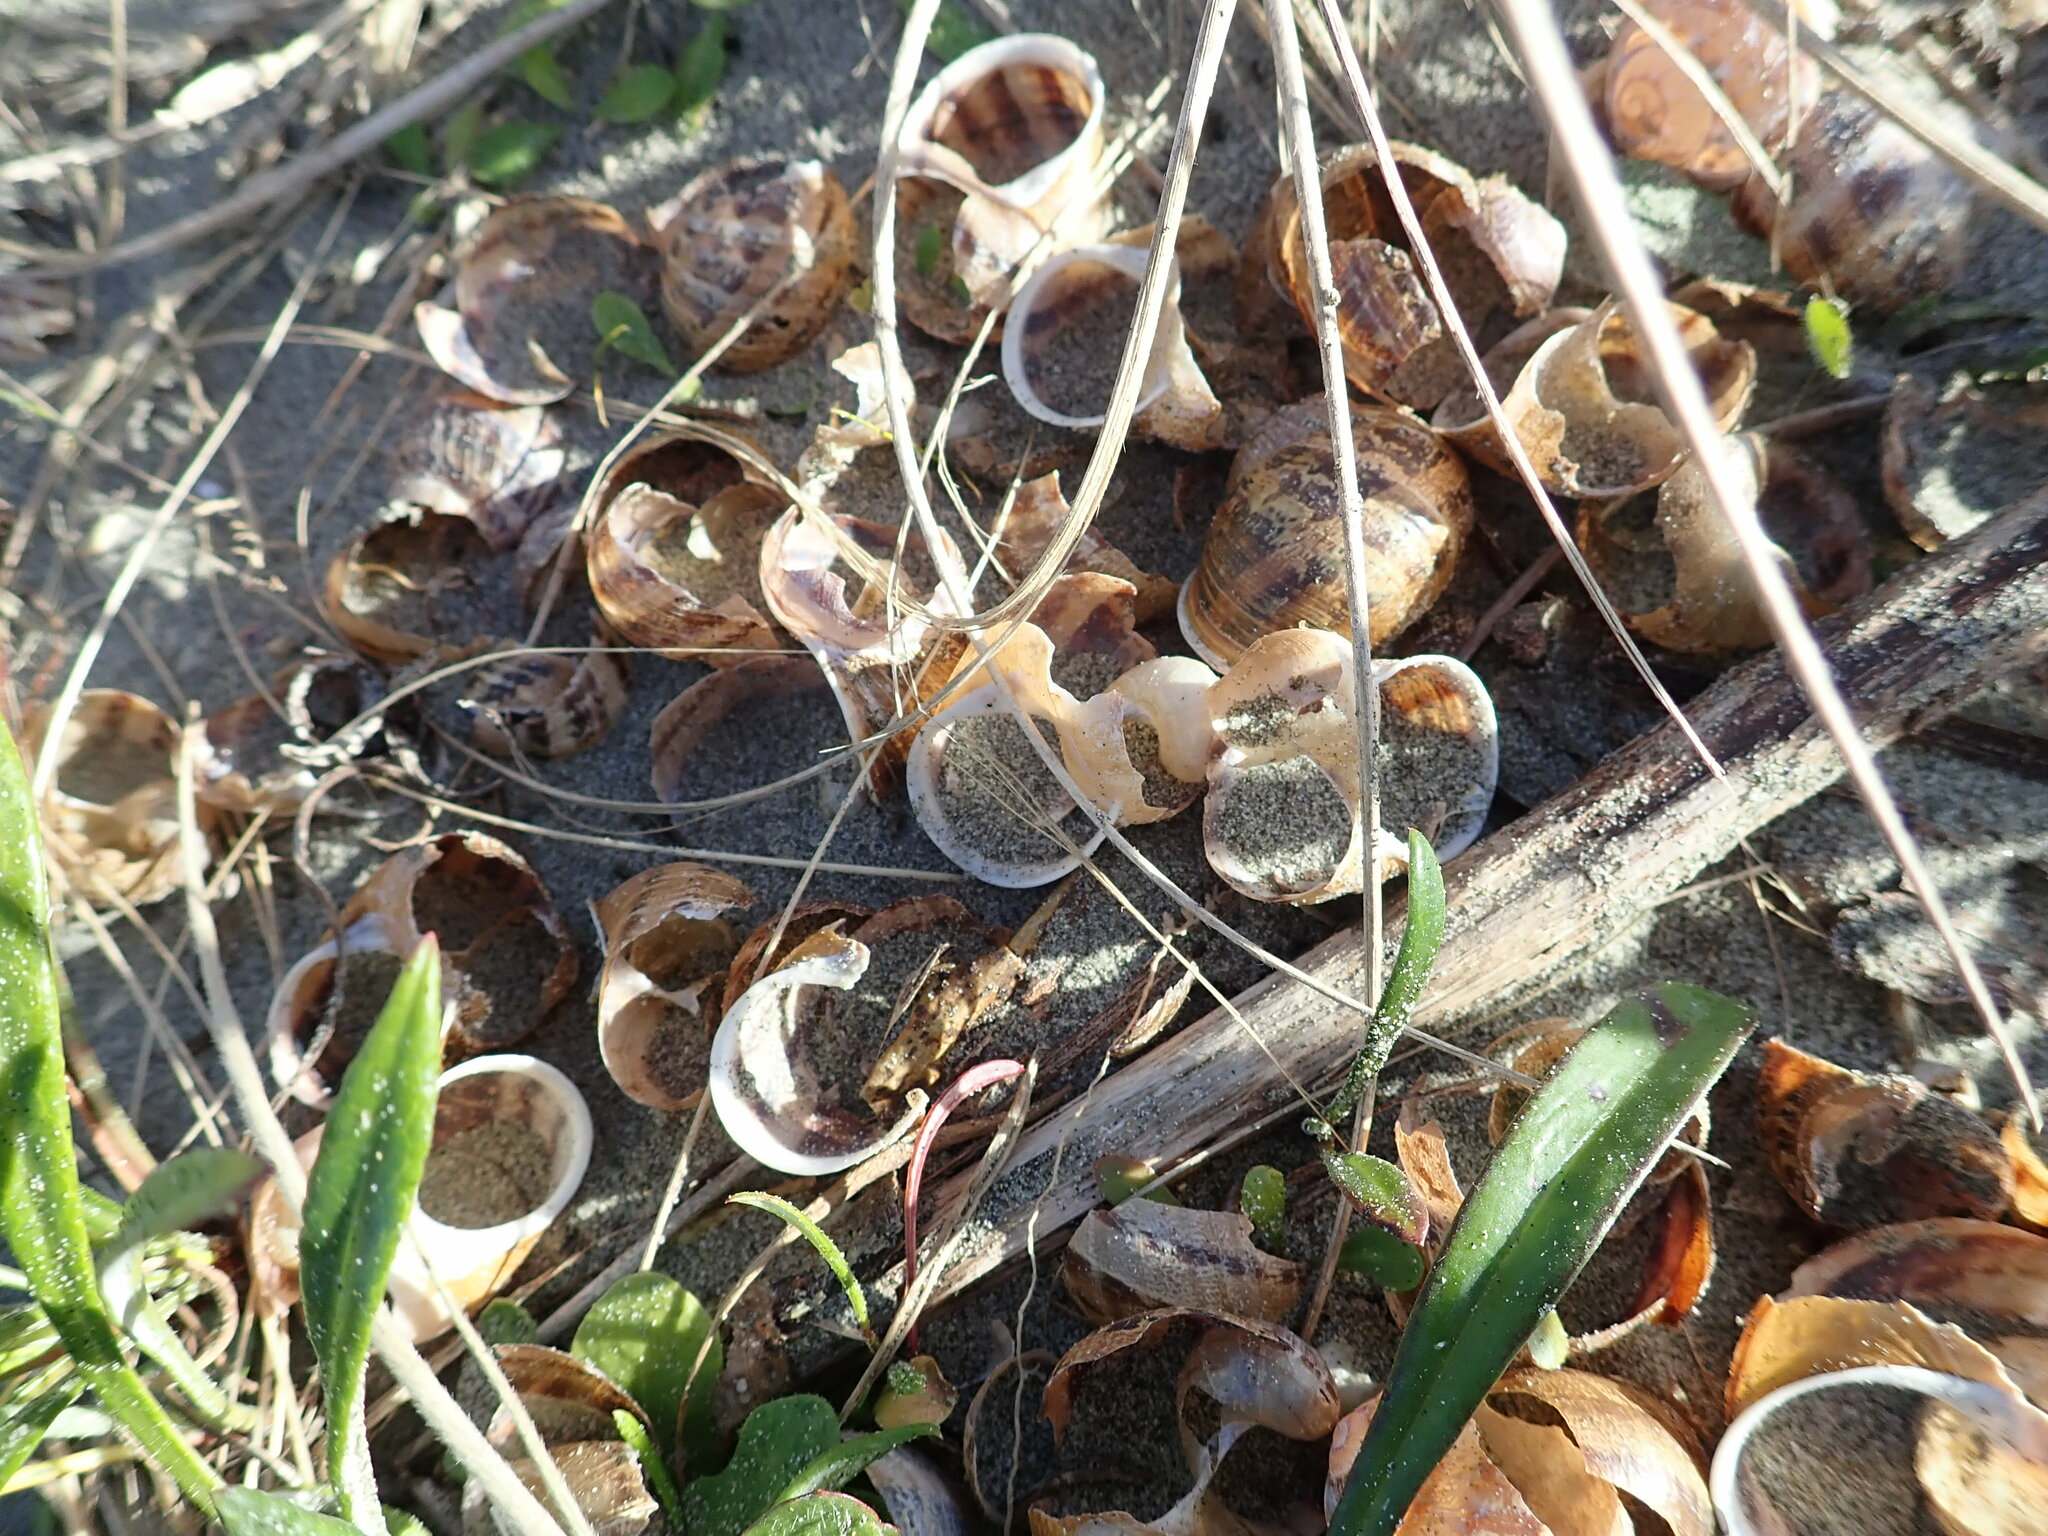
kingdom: Animalia
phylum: Mollusca
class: Gastropoda
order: Stylommatophora
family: Helicidae
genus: Cornu
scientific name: Cornu aspersum
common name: Brown garden snail
